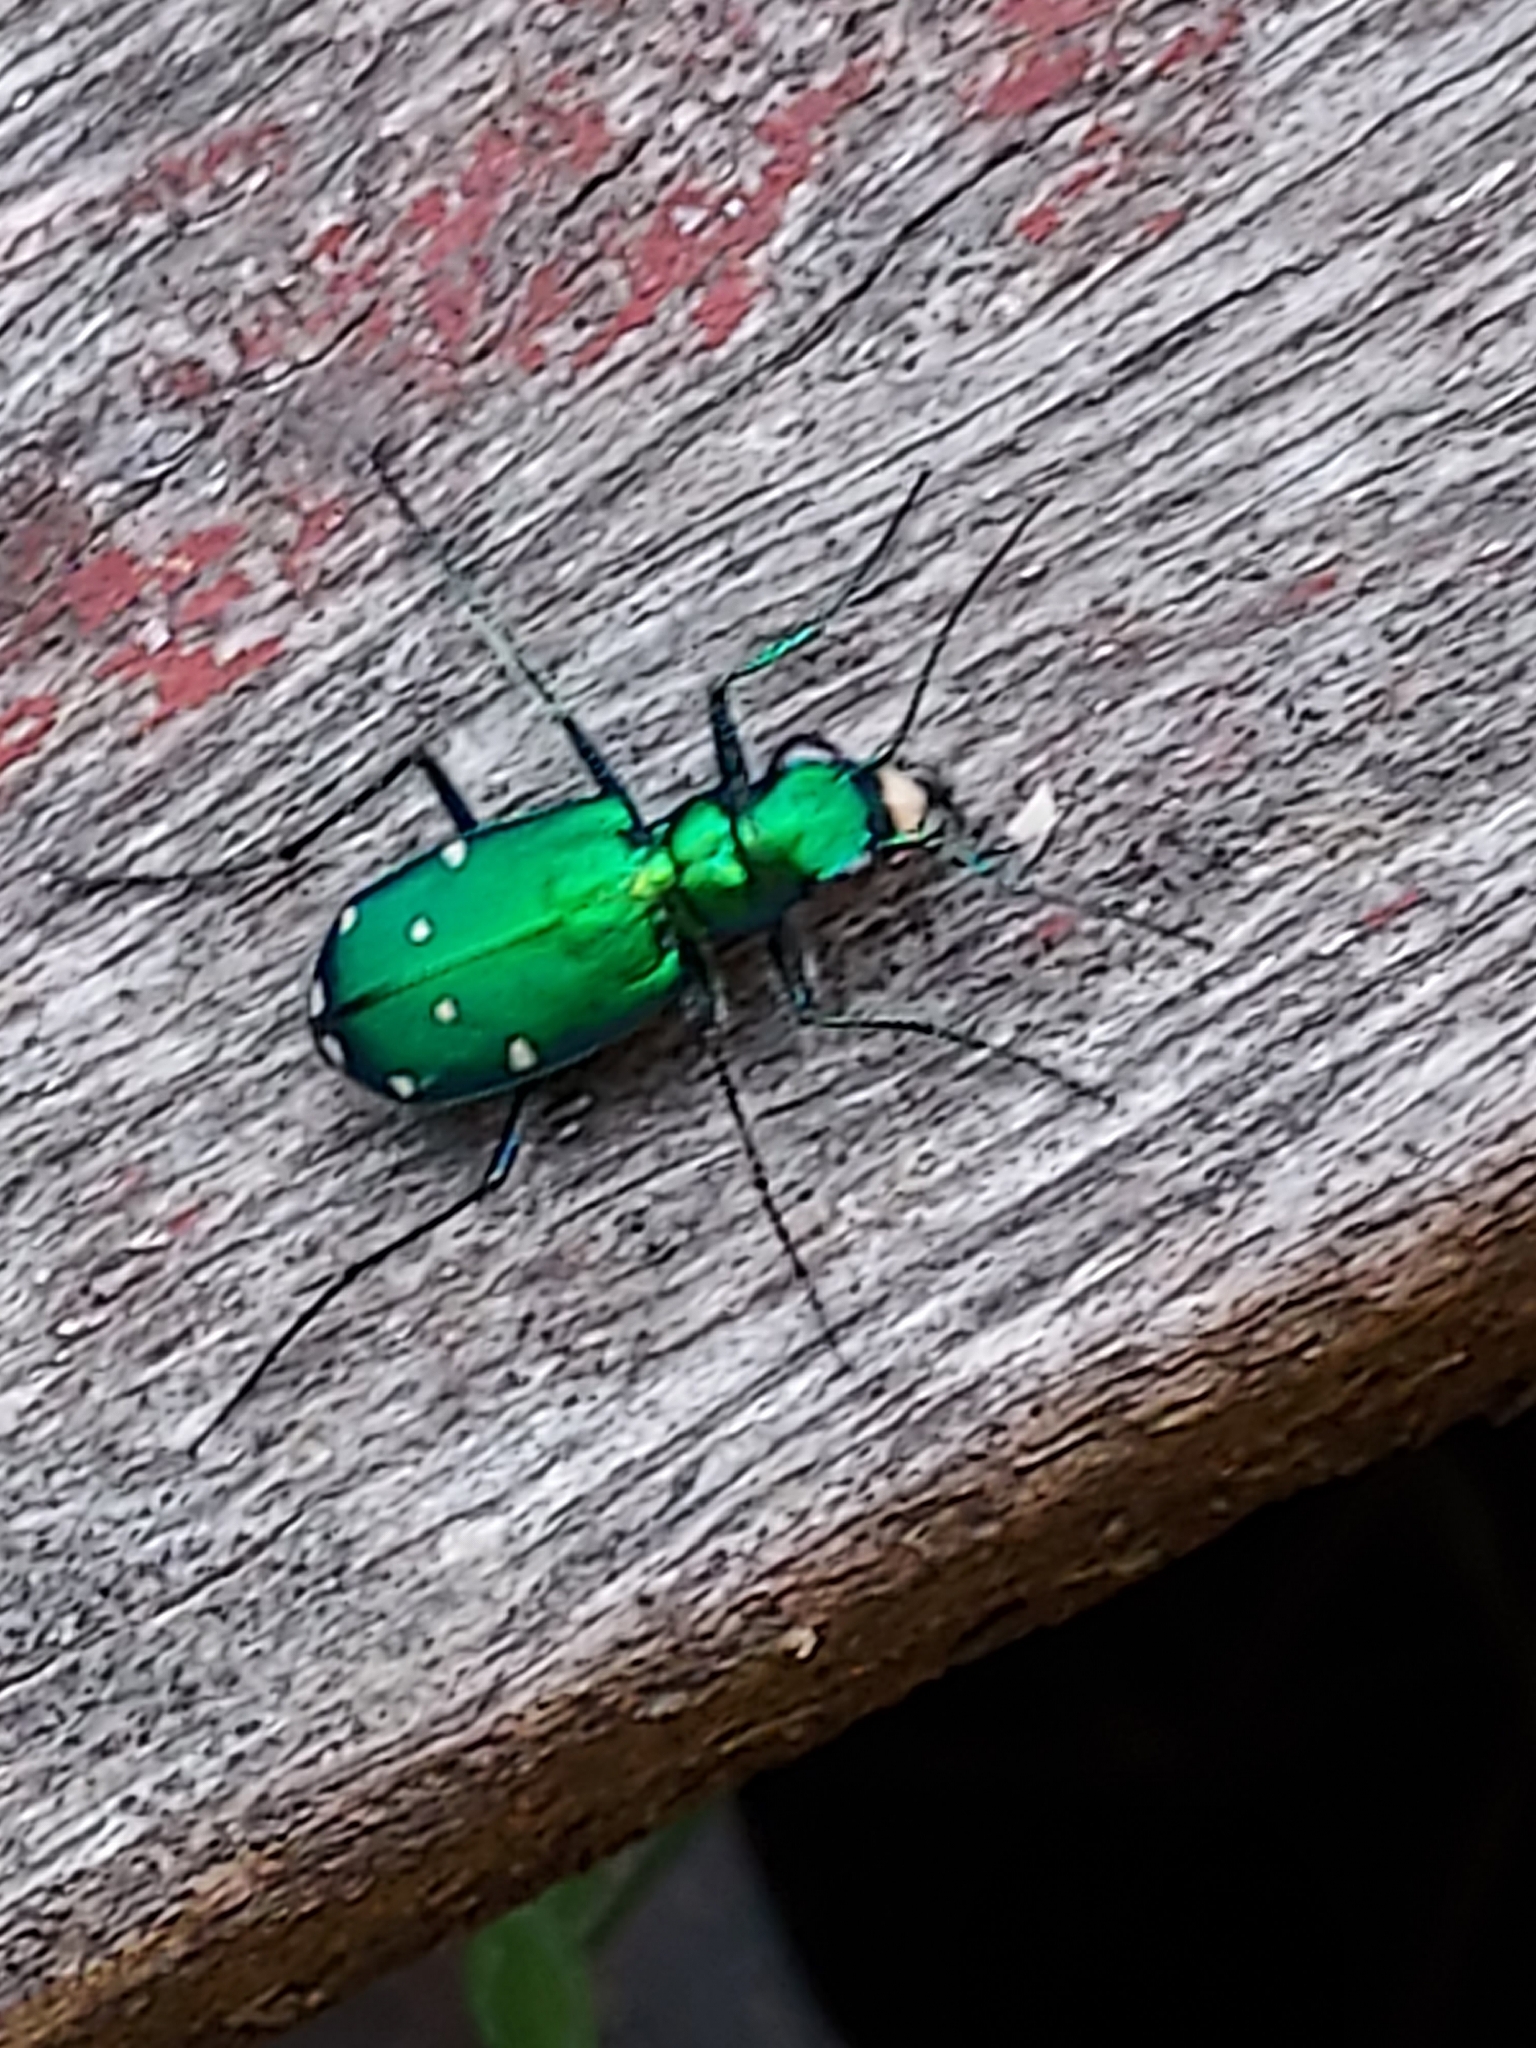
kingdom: Animalia
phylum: Arthropoda
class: Insecta
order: Coleoptera
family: Carabidae
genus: Cicindela
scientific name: Cicindela sexguttata
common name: Six-spotted tiger beetle
